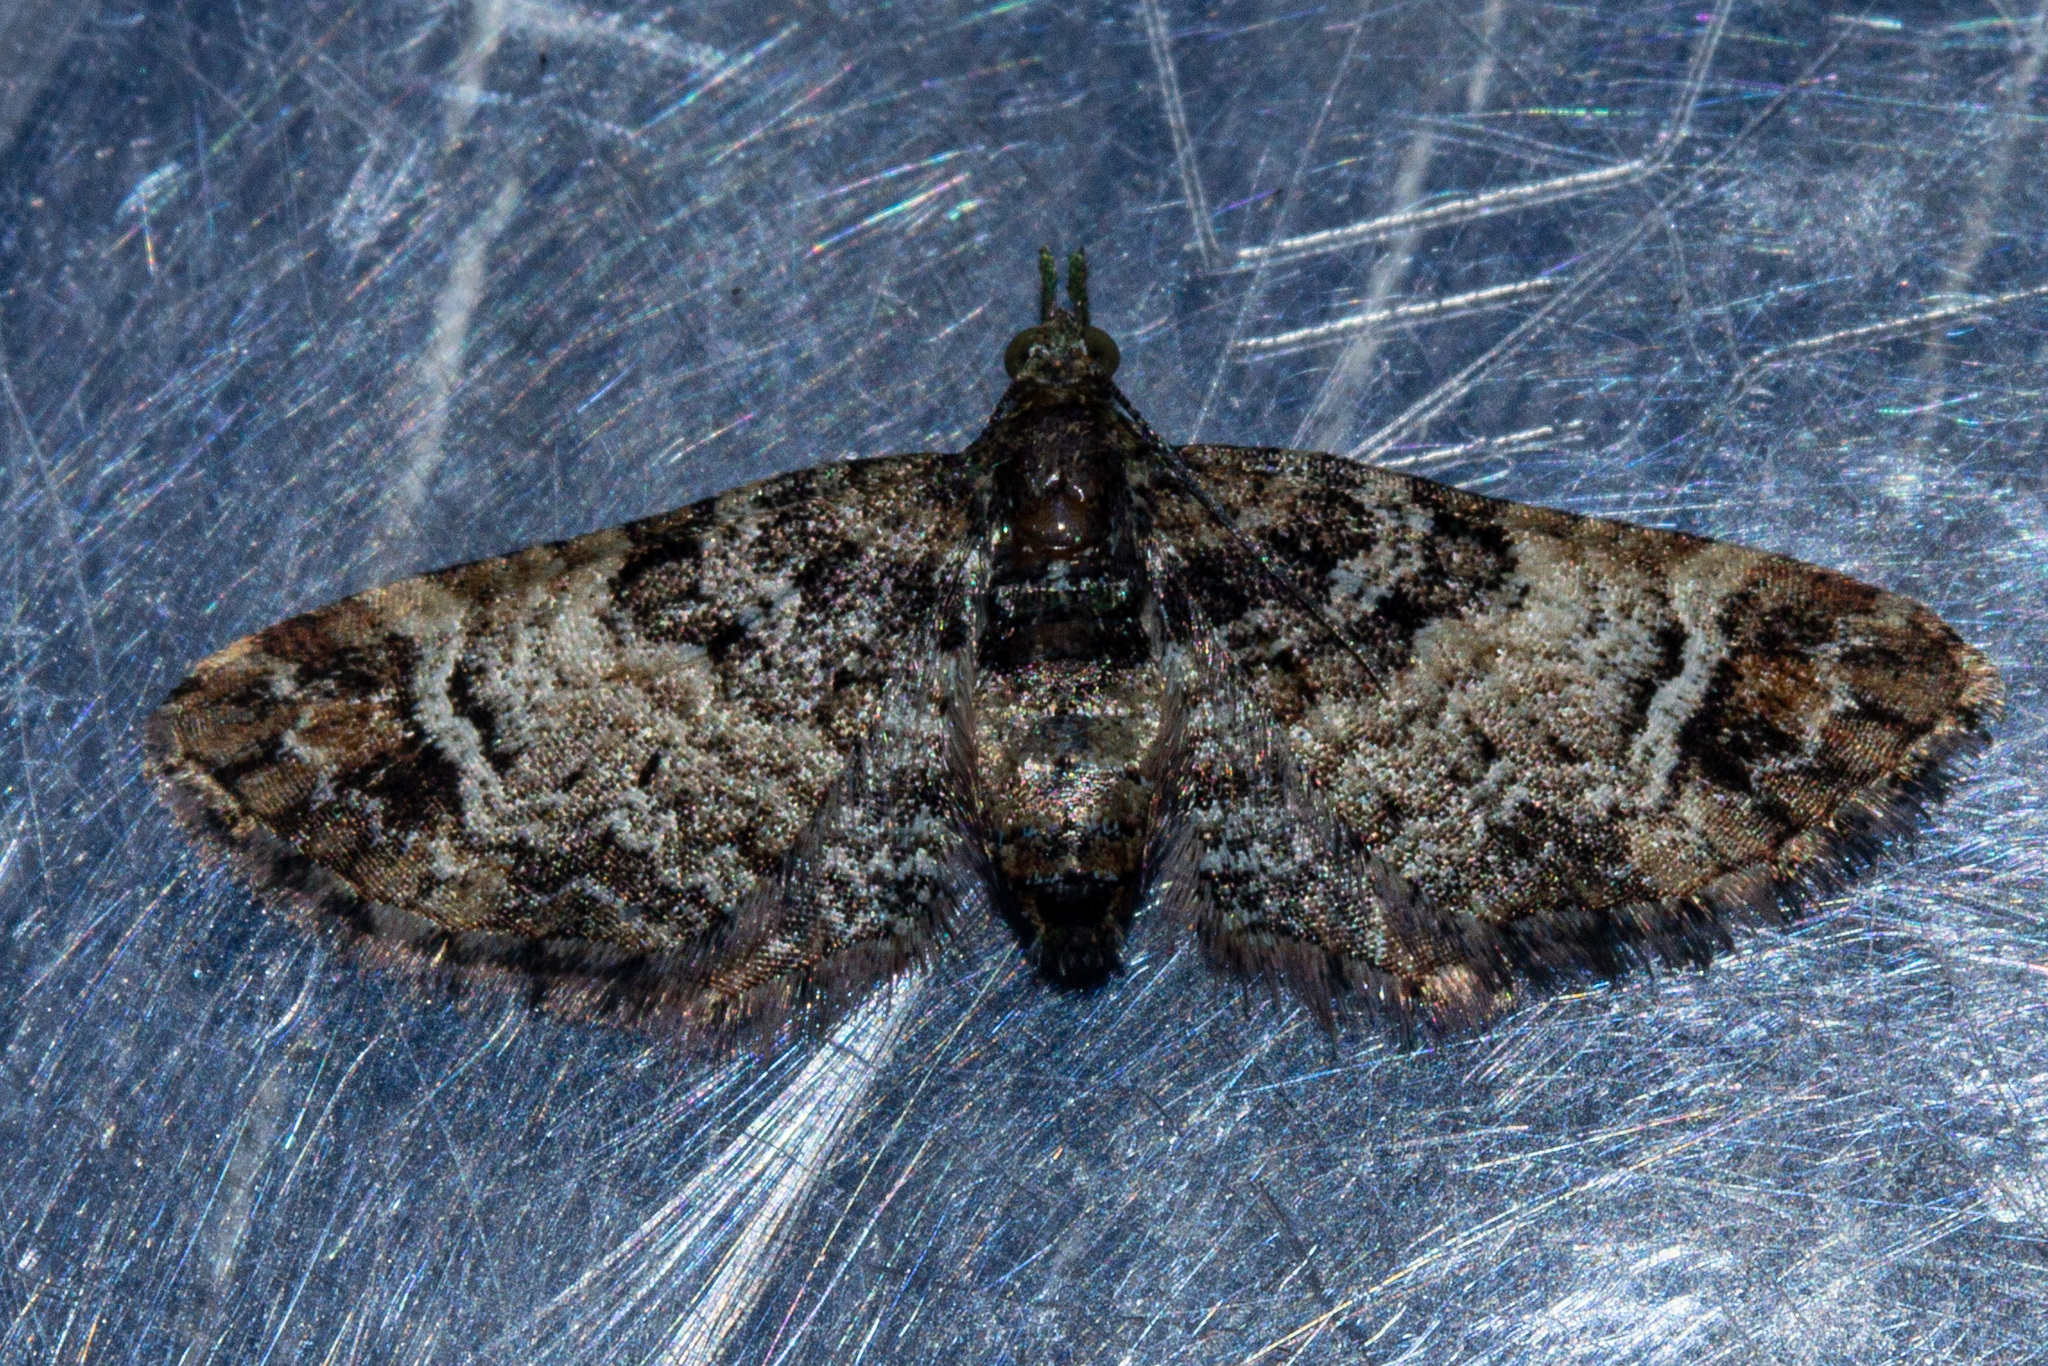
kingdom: Animalia
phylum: Arthropoda
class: Insecta
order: Lepidoptera
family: Geometridae
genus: Pasiphila
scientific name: Pasiphila sandycias
